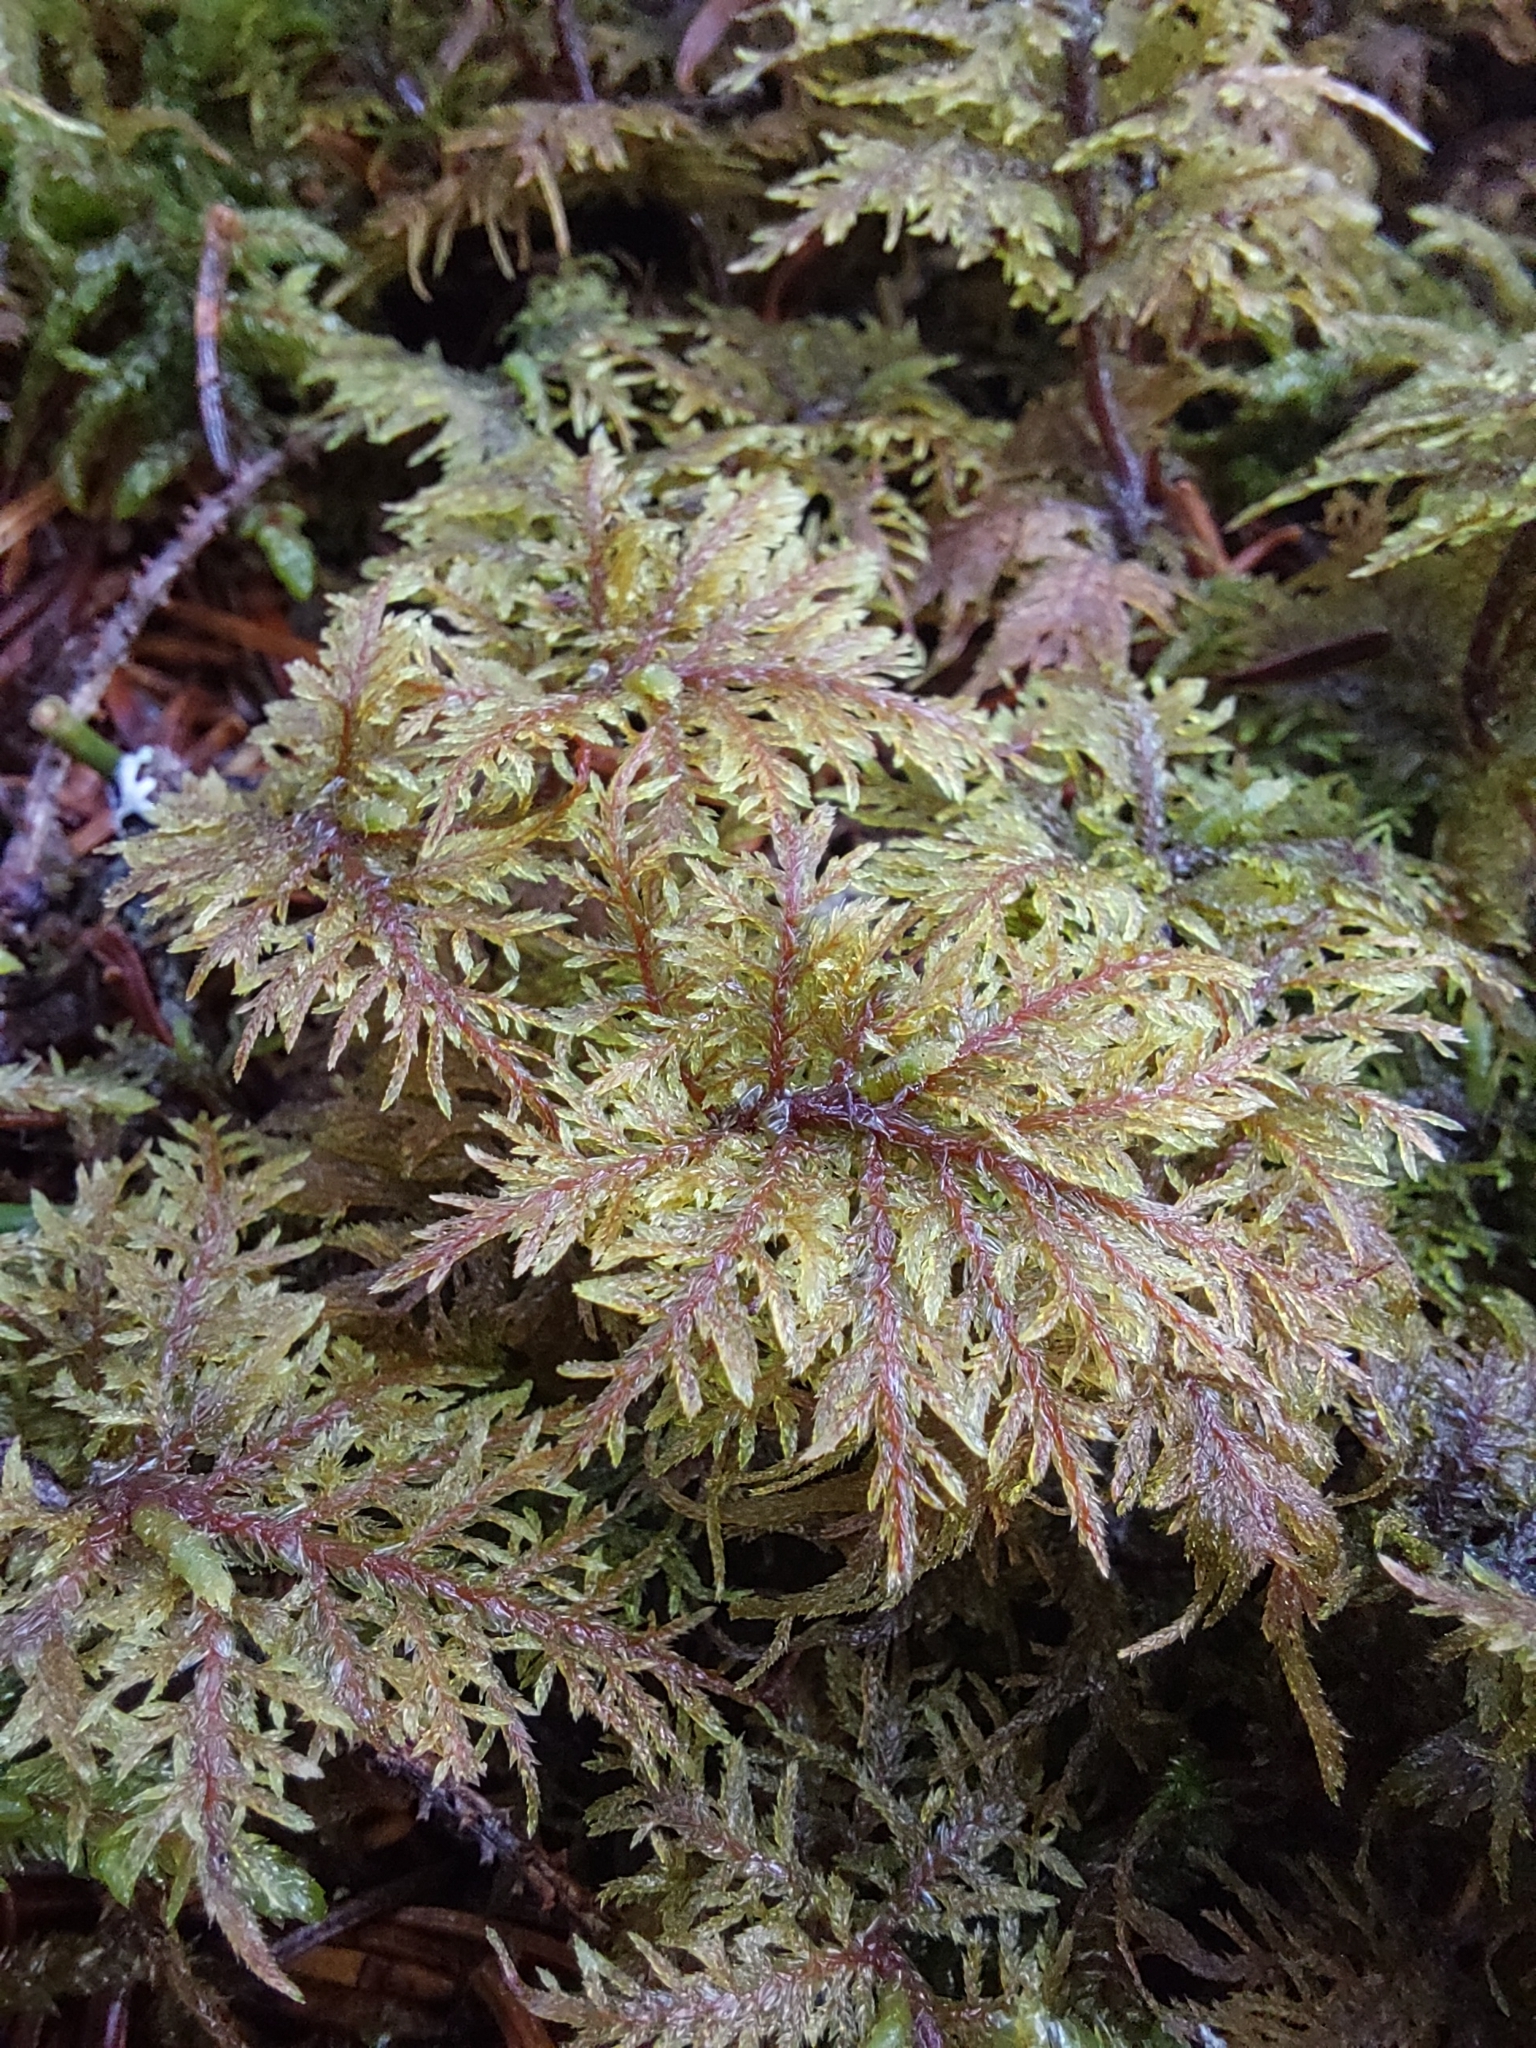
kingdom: Plantae
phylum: Bryophyta
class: Bryopsida
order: Hypnales
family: Hylocomiaceae
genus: Hylocomium
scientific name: Hylocomium splendens
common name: Stairstep moss
